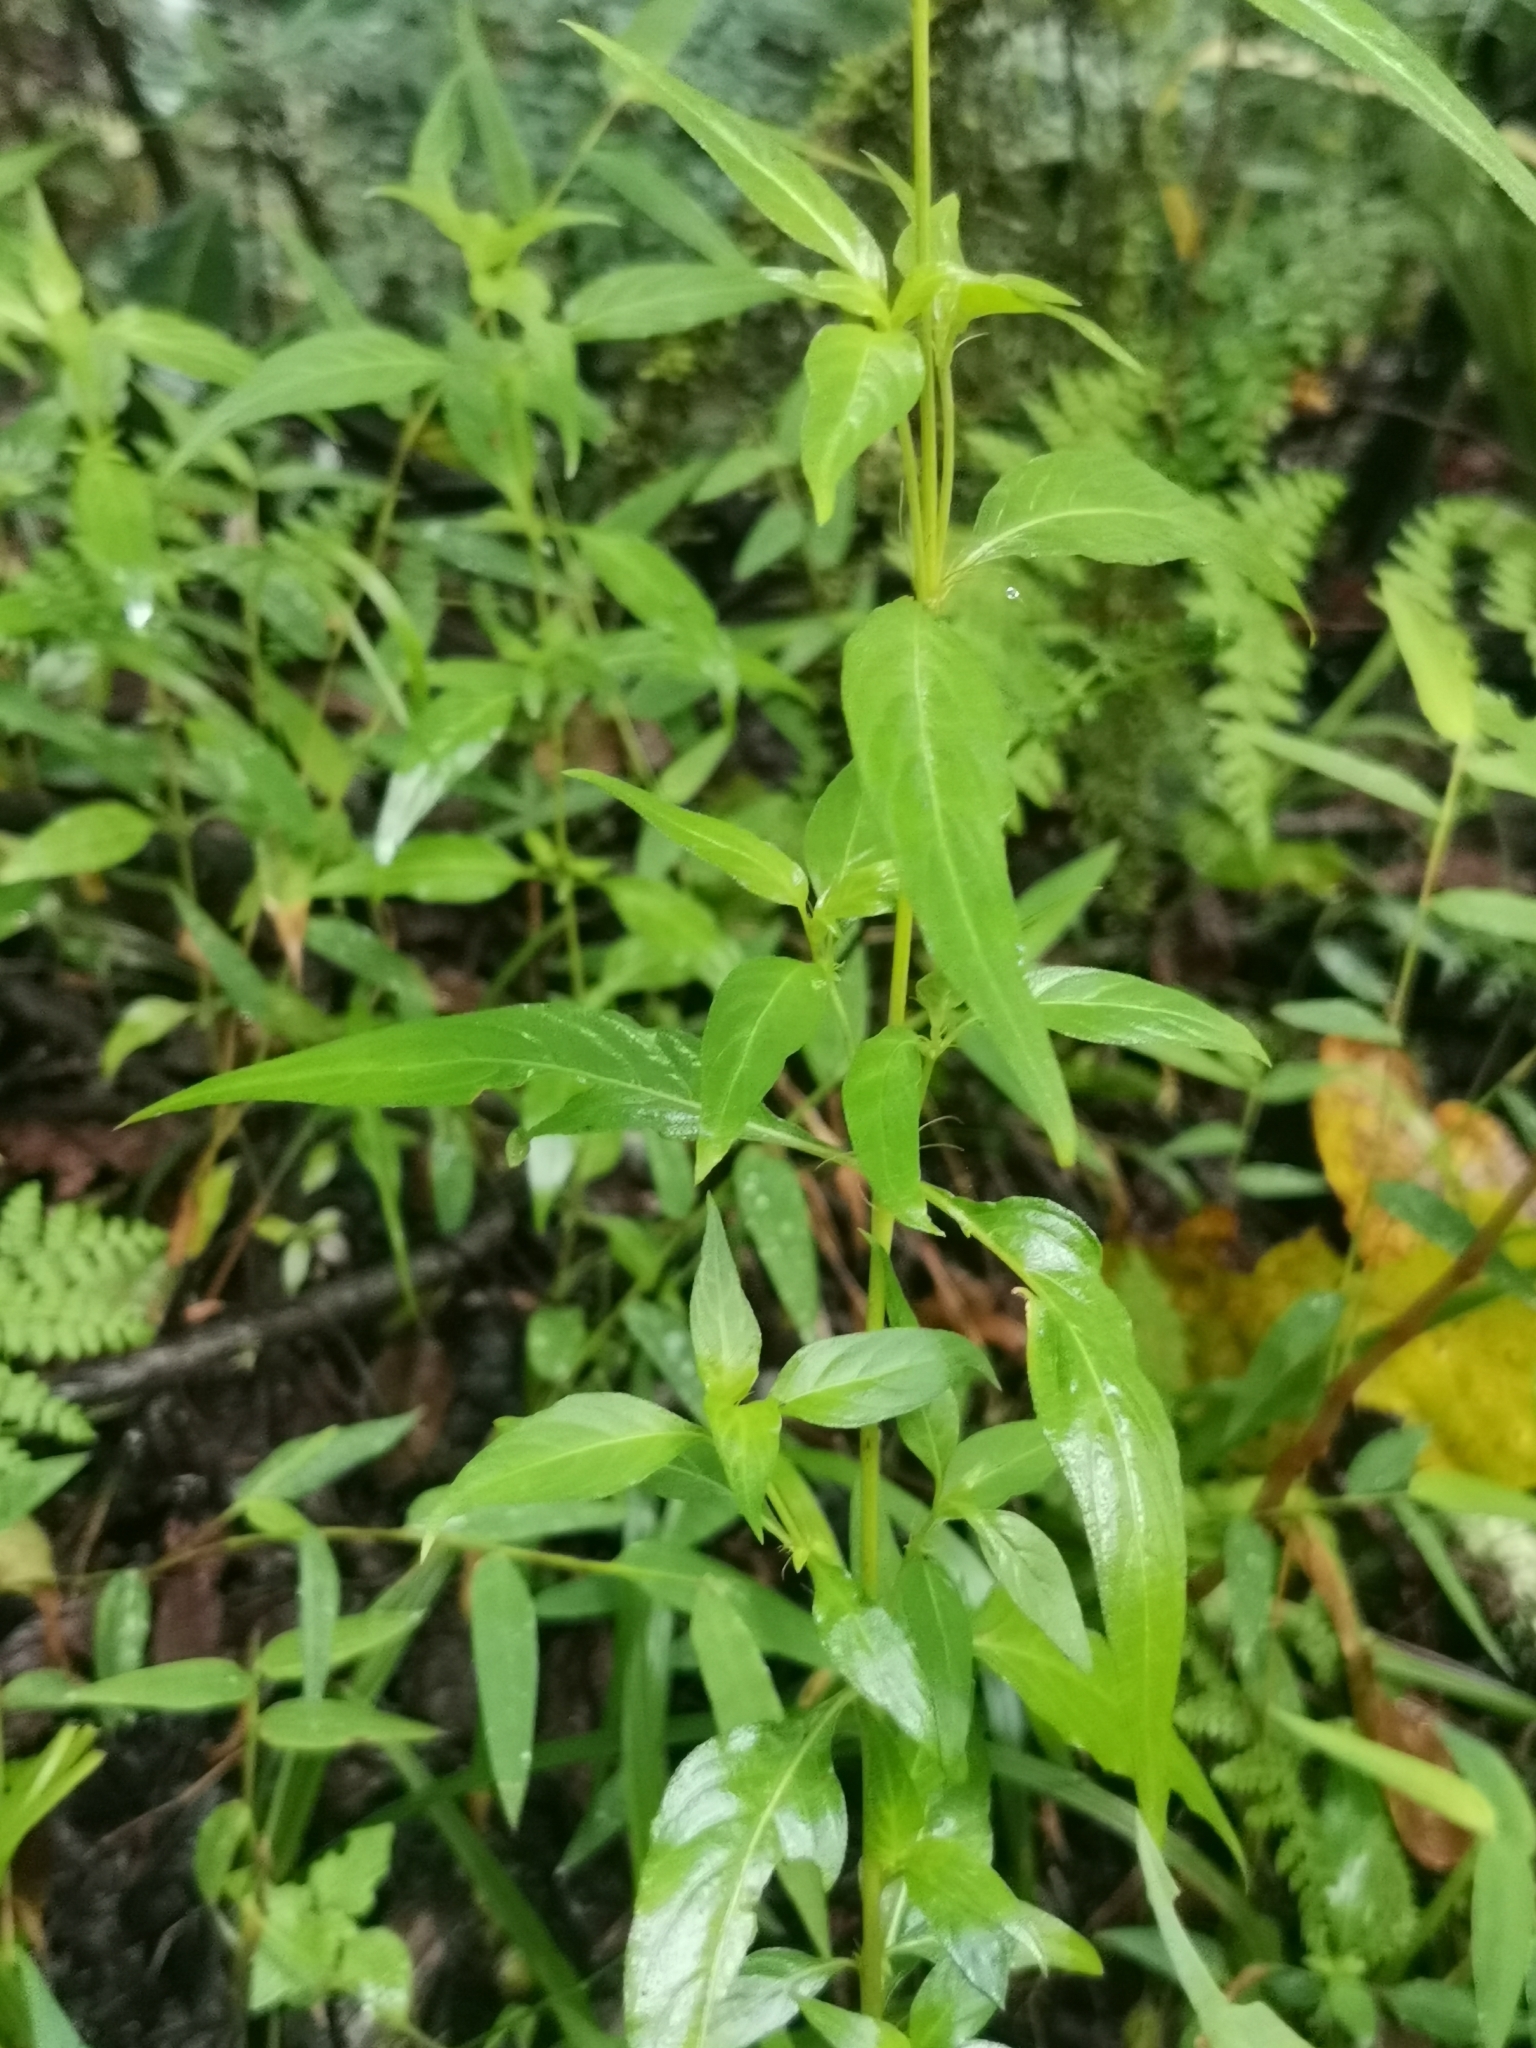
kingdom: Plantae
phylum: Tracheophyta
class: Magnoliopsida
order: Gentianales
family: Rubiaceae
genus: Galopina
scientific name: Galopina circaeoides
